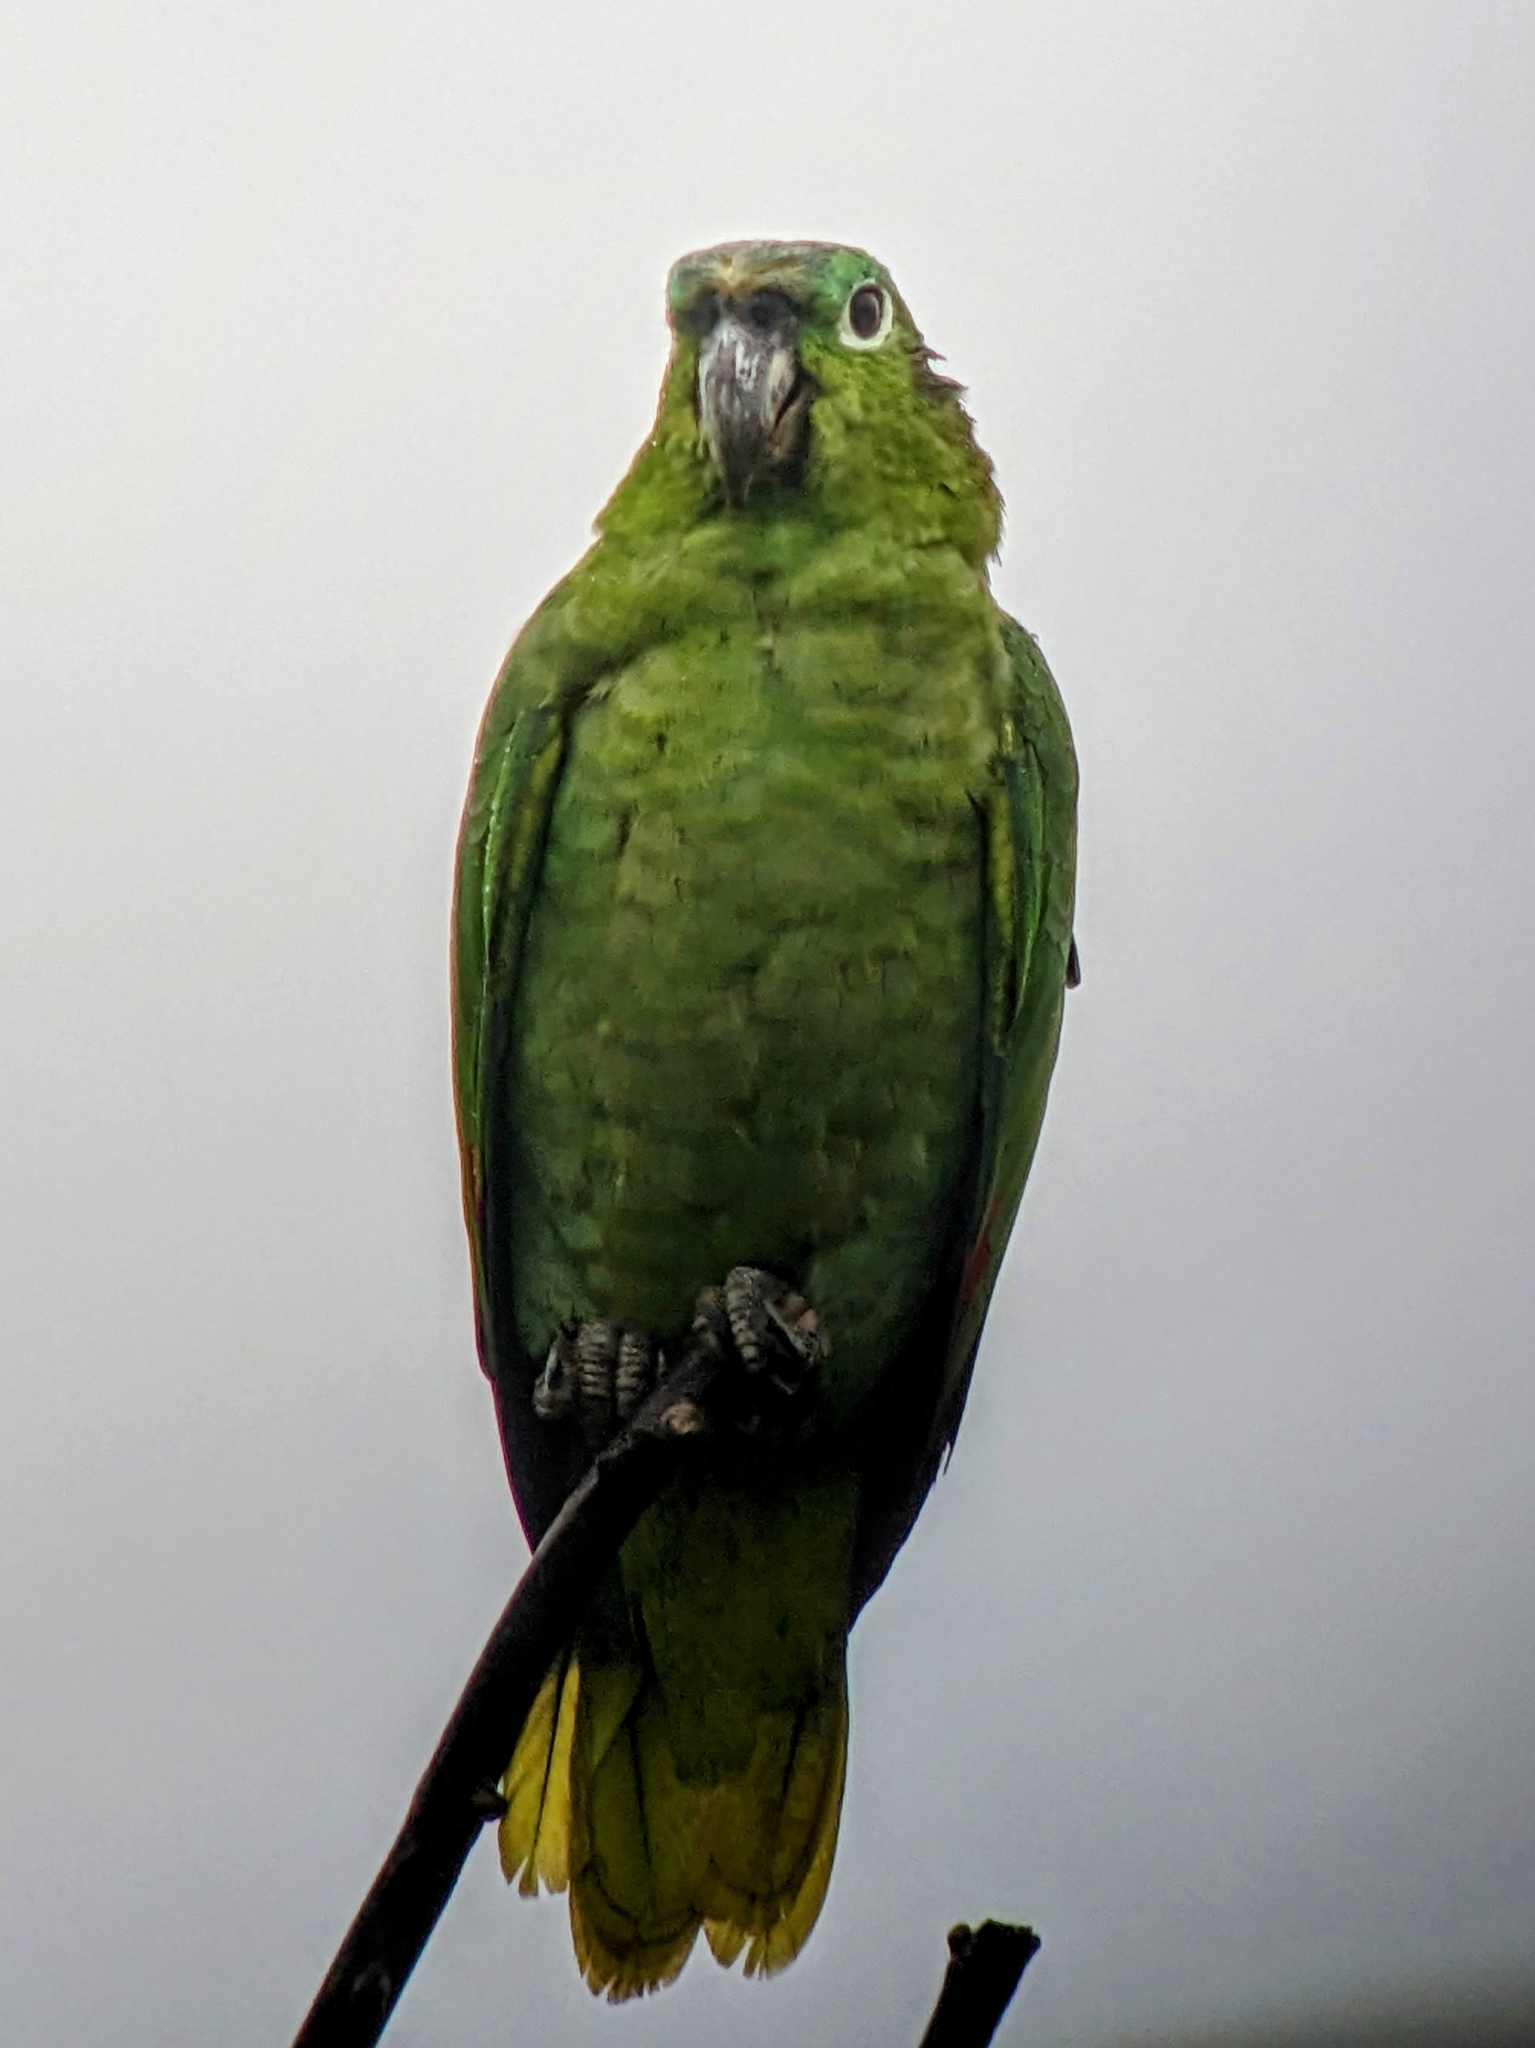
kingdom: Animalia
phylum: Chordata
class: Aves
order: Psittaciformes
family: Psittacidae
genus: Amazona
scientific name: Amazona farinosa
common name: Mealy parrot
